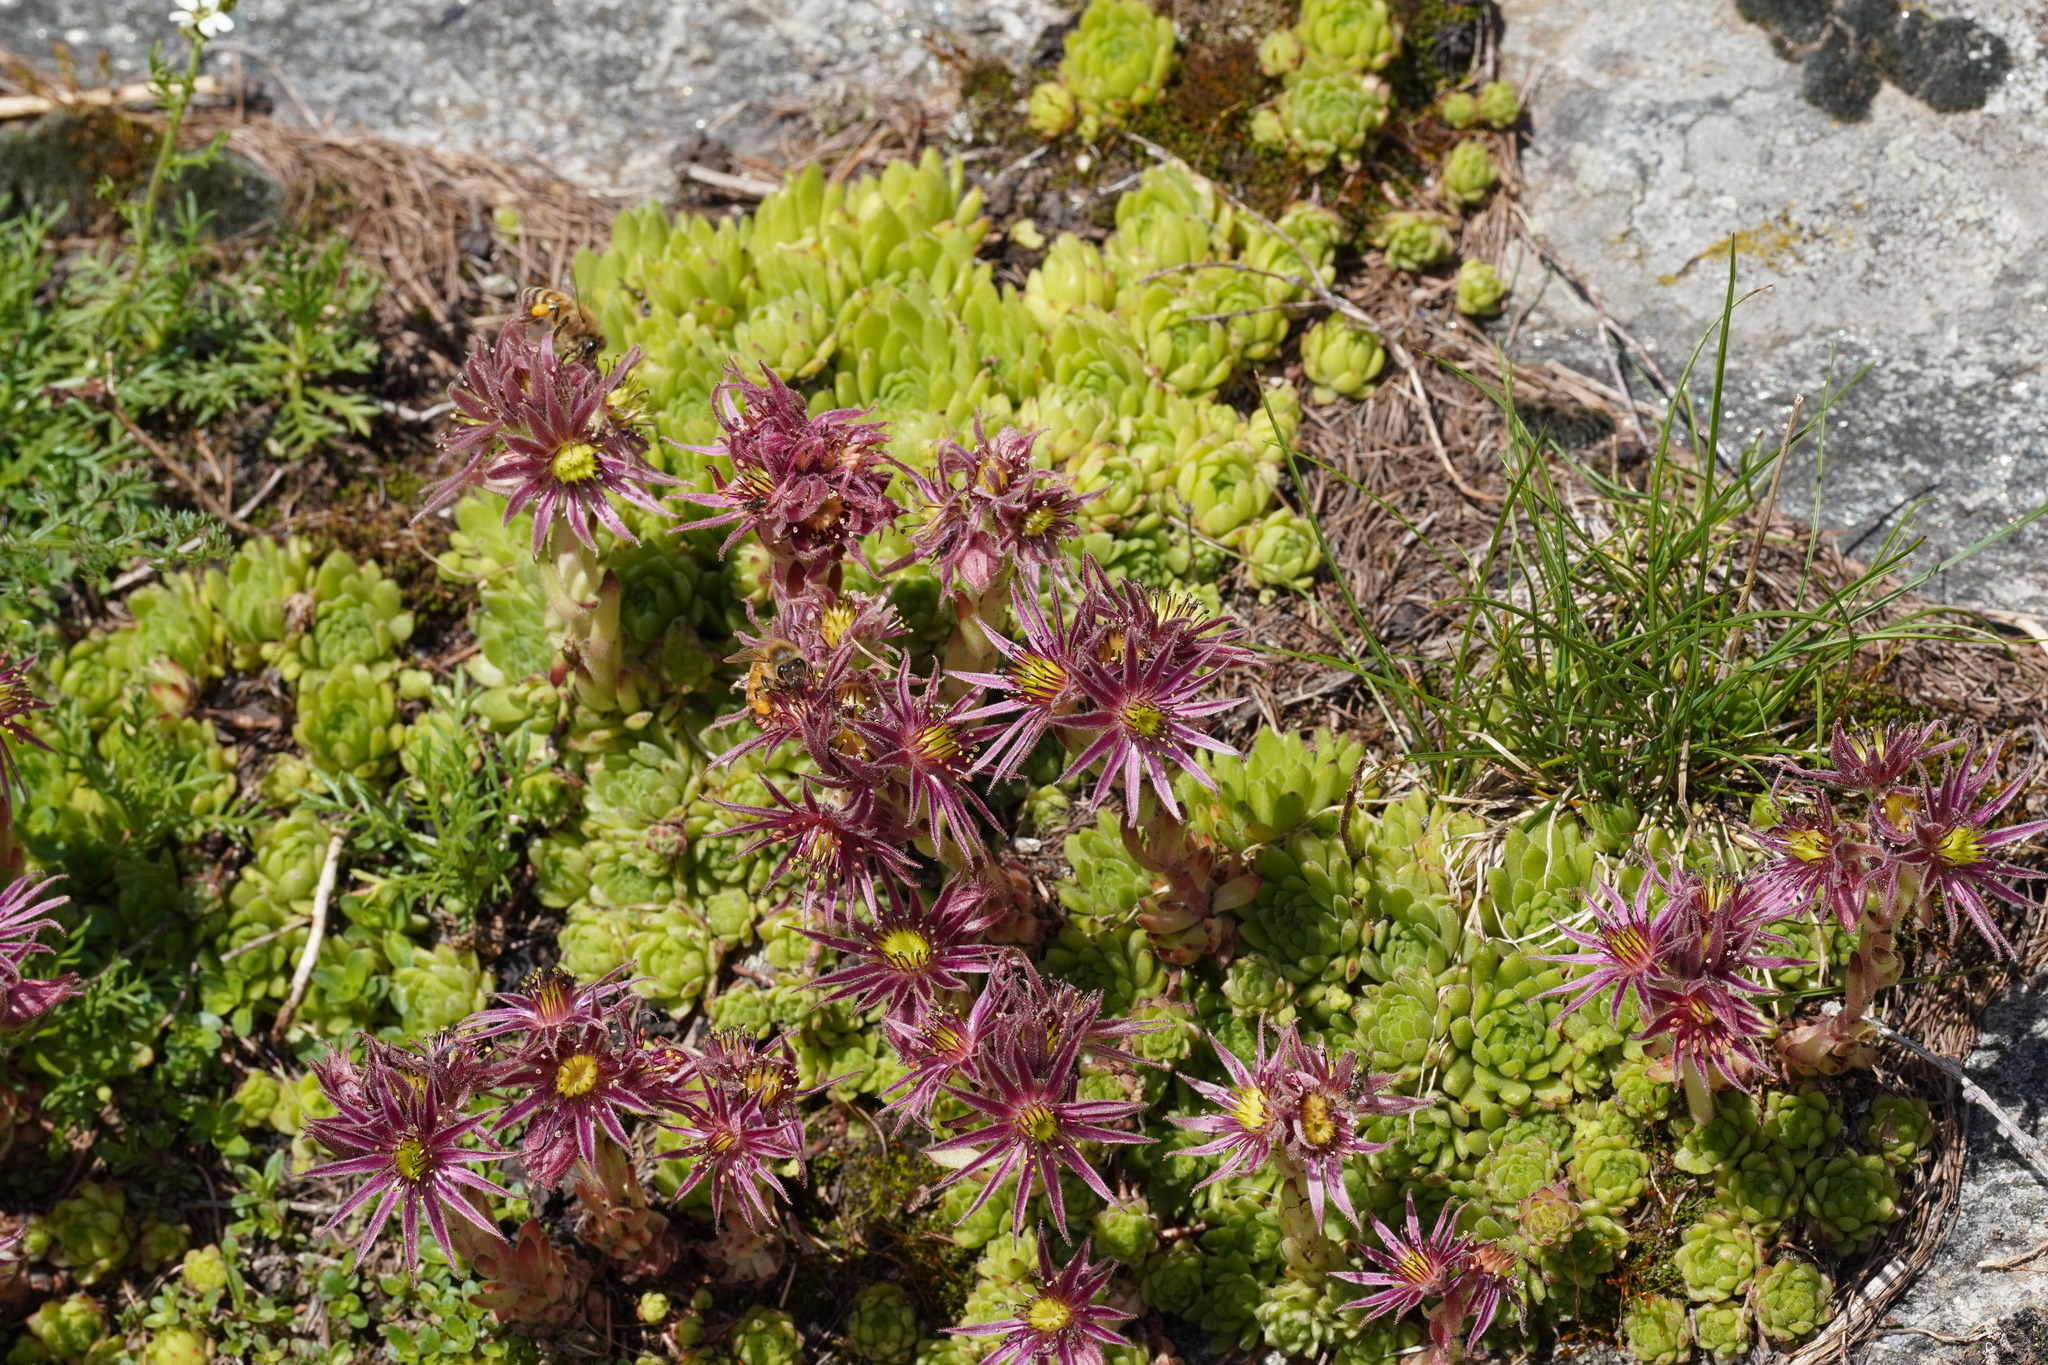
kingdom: Plantae
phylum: Tracheophyta
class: Magnoliopsida
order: Saxifragales
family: Crassulaceae
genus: Sempervivum
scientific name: Sempervivum montanum
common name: Mountain house-leek
